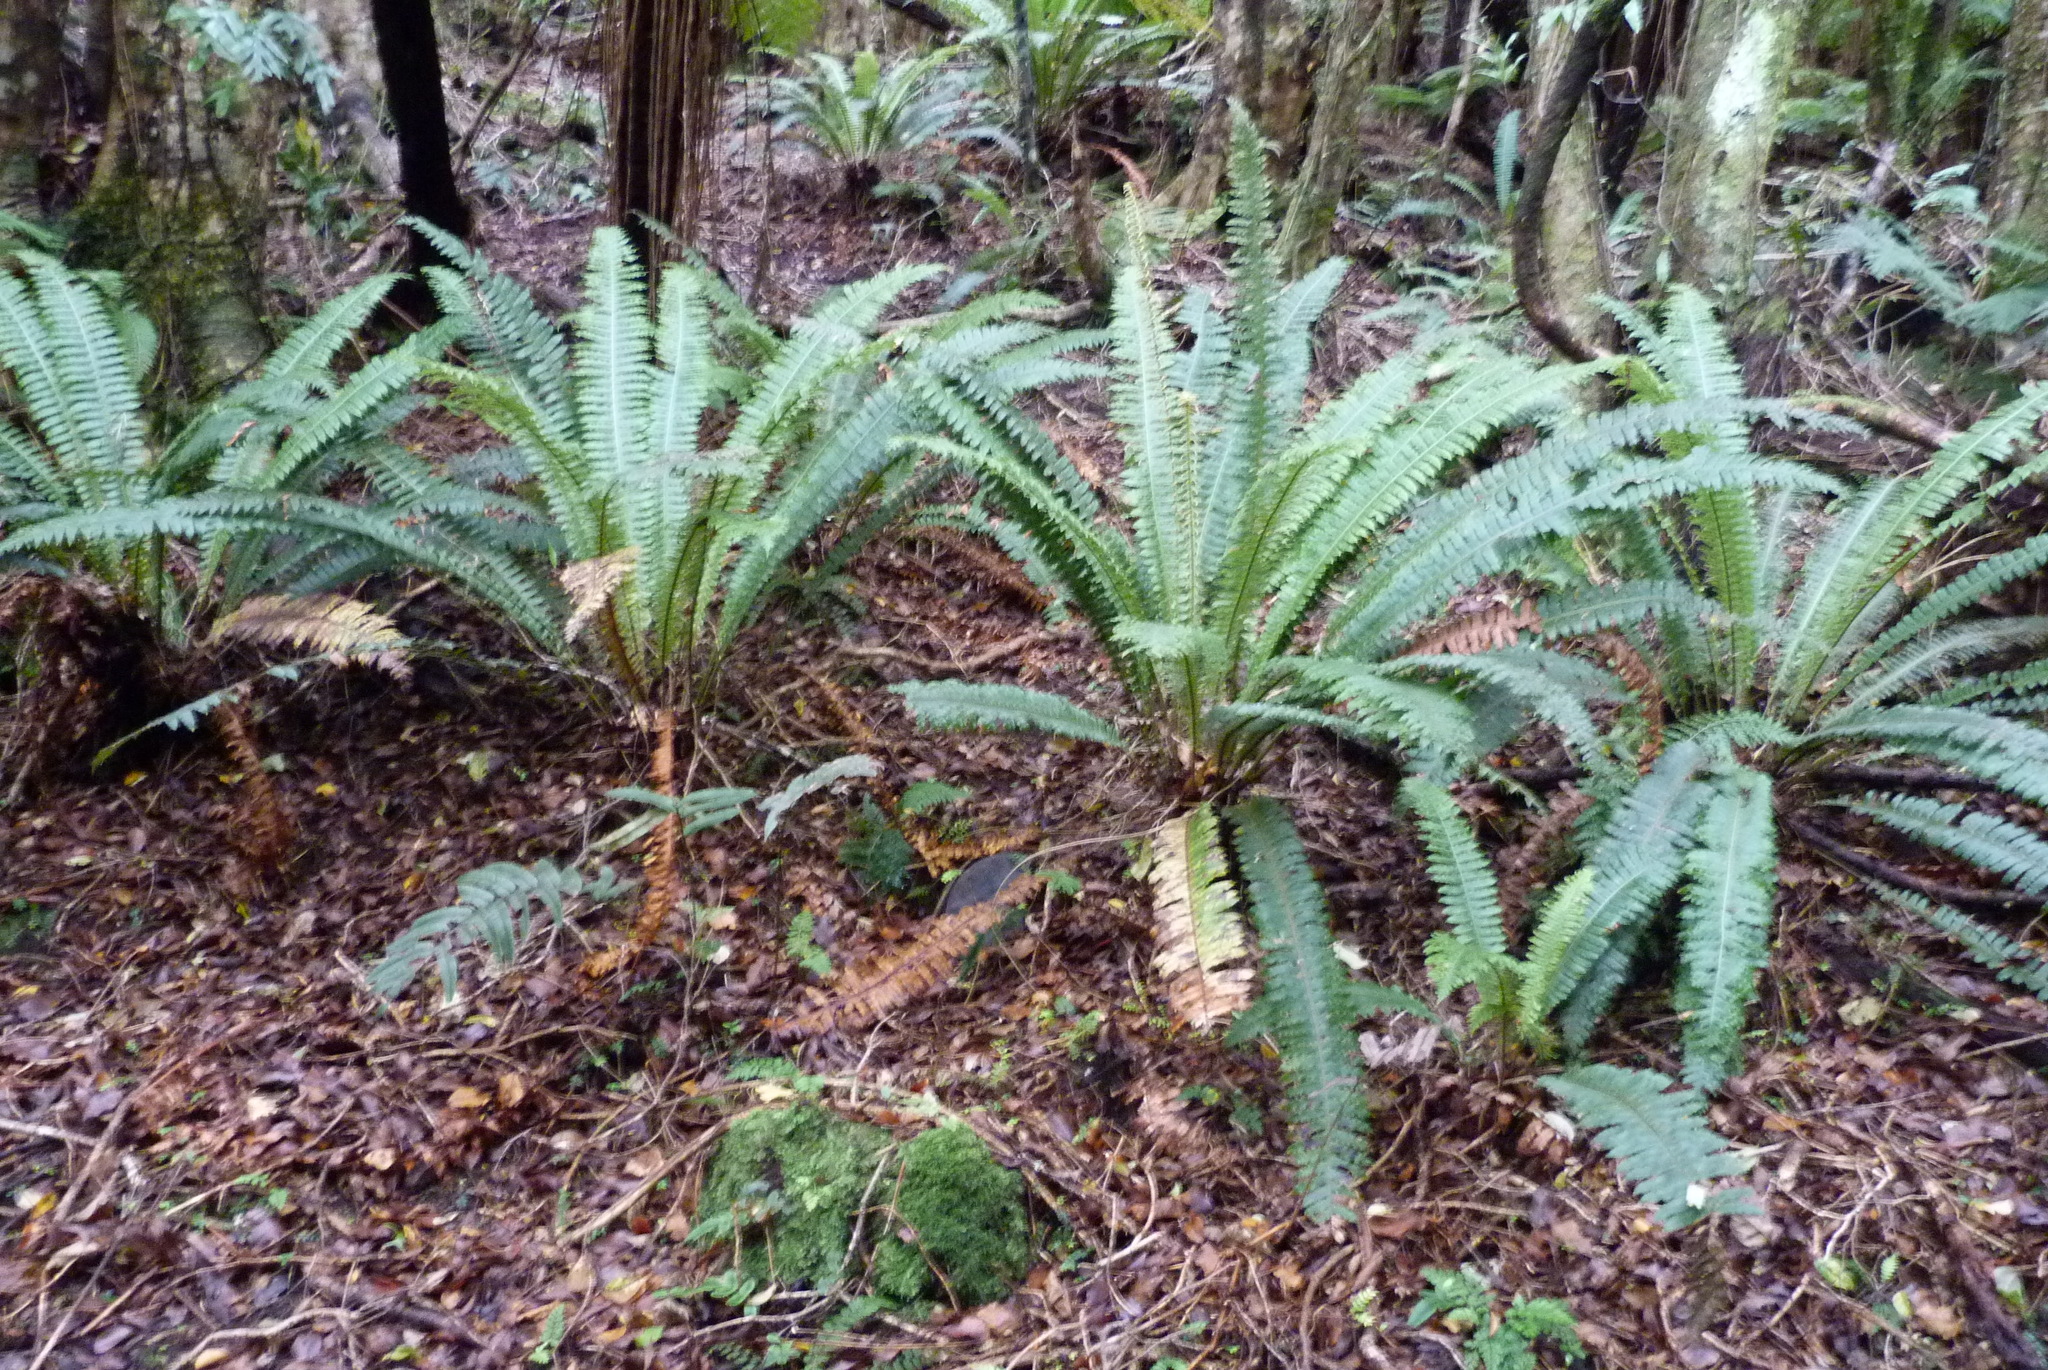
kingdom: Plantae
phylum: Tracheophyta
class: Polypodiopsida
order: Polypodiales
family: Blechnaceae
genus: Lomaria
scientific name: Lomaria discolor
